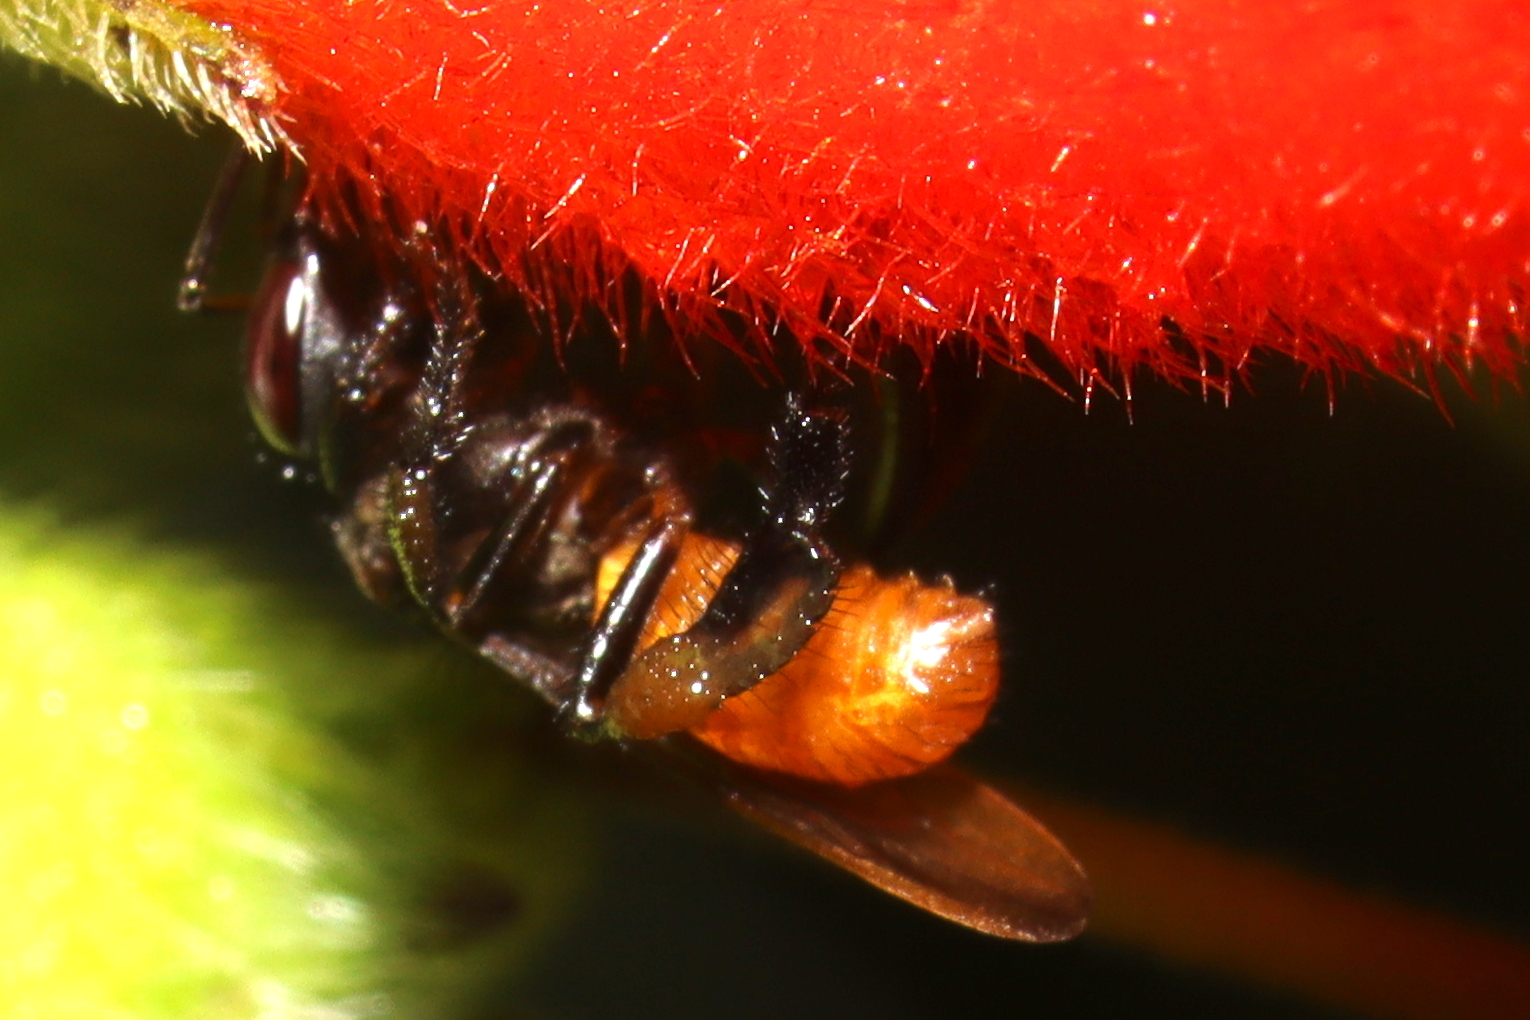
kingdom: Animalia
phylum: Arthropoda
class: Insecta
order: Hymenoptera
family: Apidae
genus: Trigona
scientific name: Trigona fulviventris
